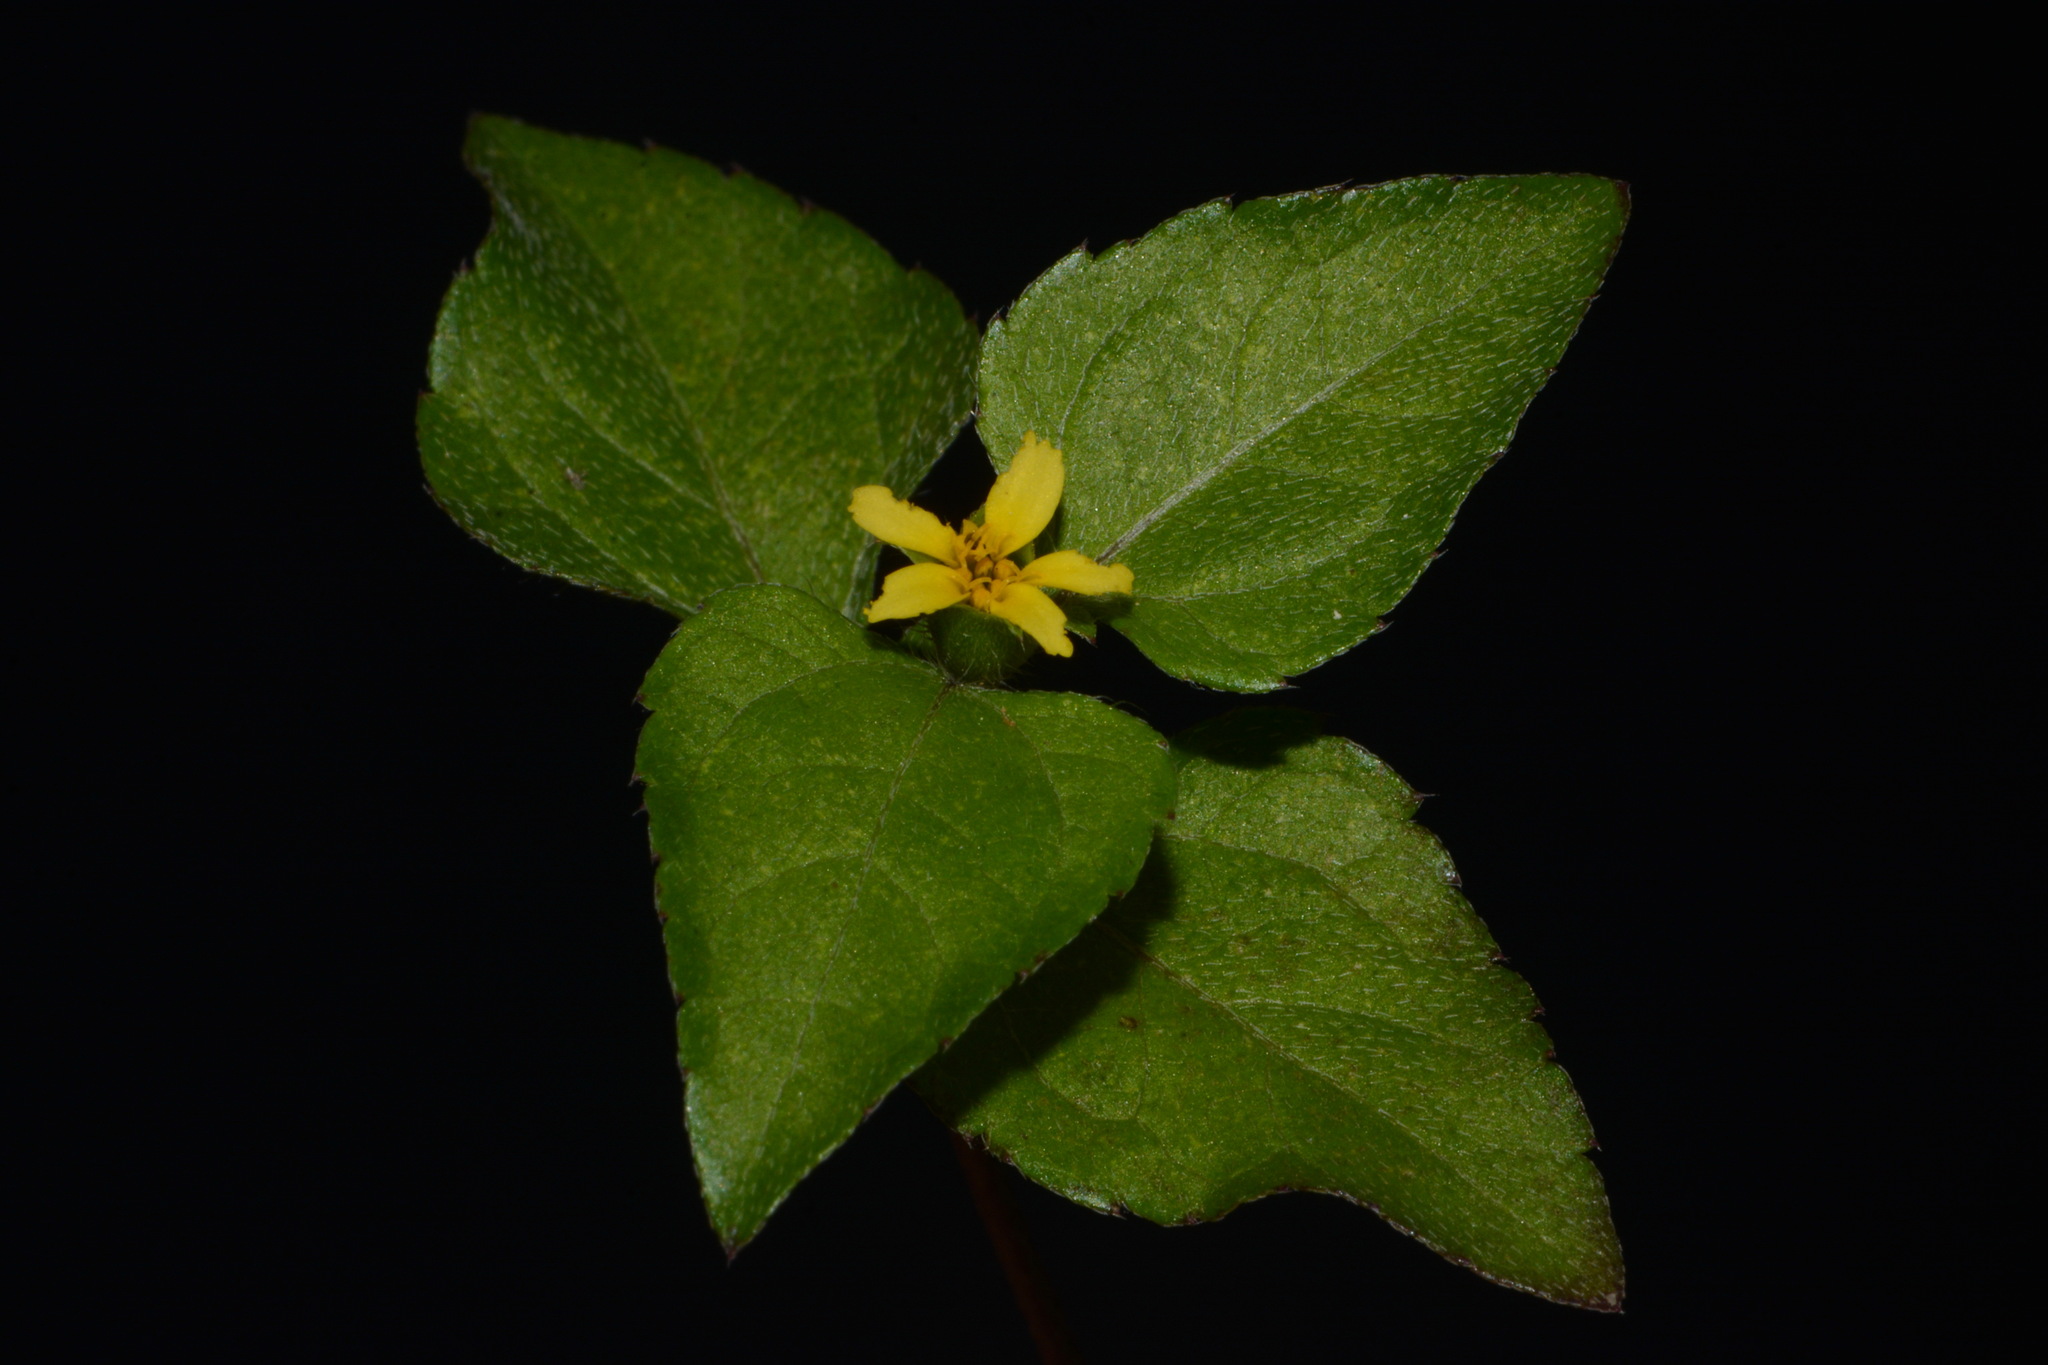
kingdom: Plantae
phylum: Tracheophyta
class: Magnoliopsida
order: Asterales
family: Asteraceae
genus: Calyptocarpus
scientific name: Calyptocarpus vialis
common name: Straggler daisy
